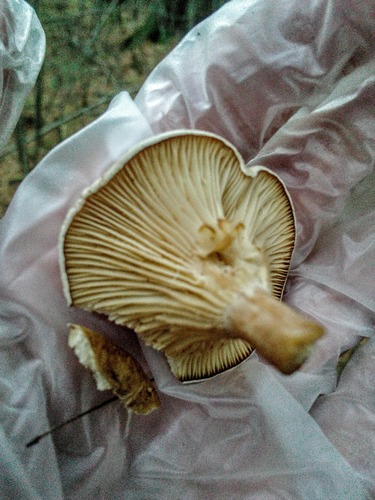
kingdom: Fungi
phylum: Basidiomycota
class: Agaricomycetes
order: Agaricales
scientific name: Agaricales
